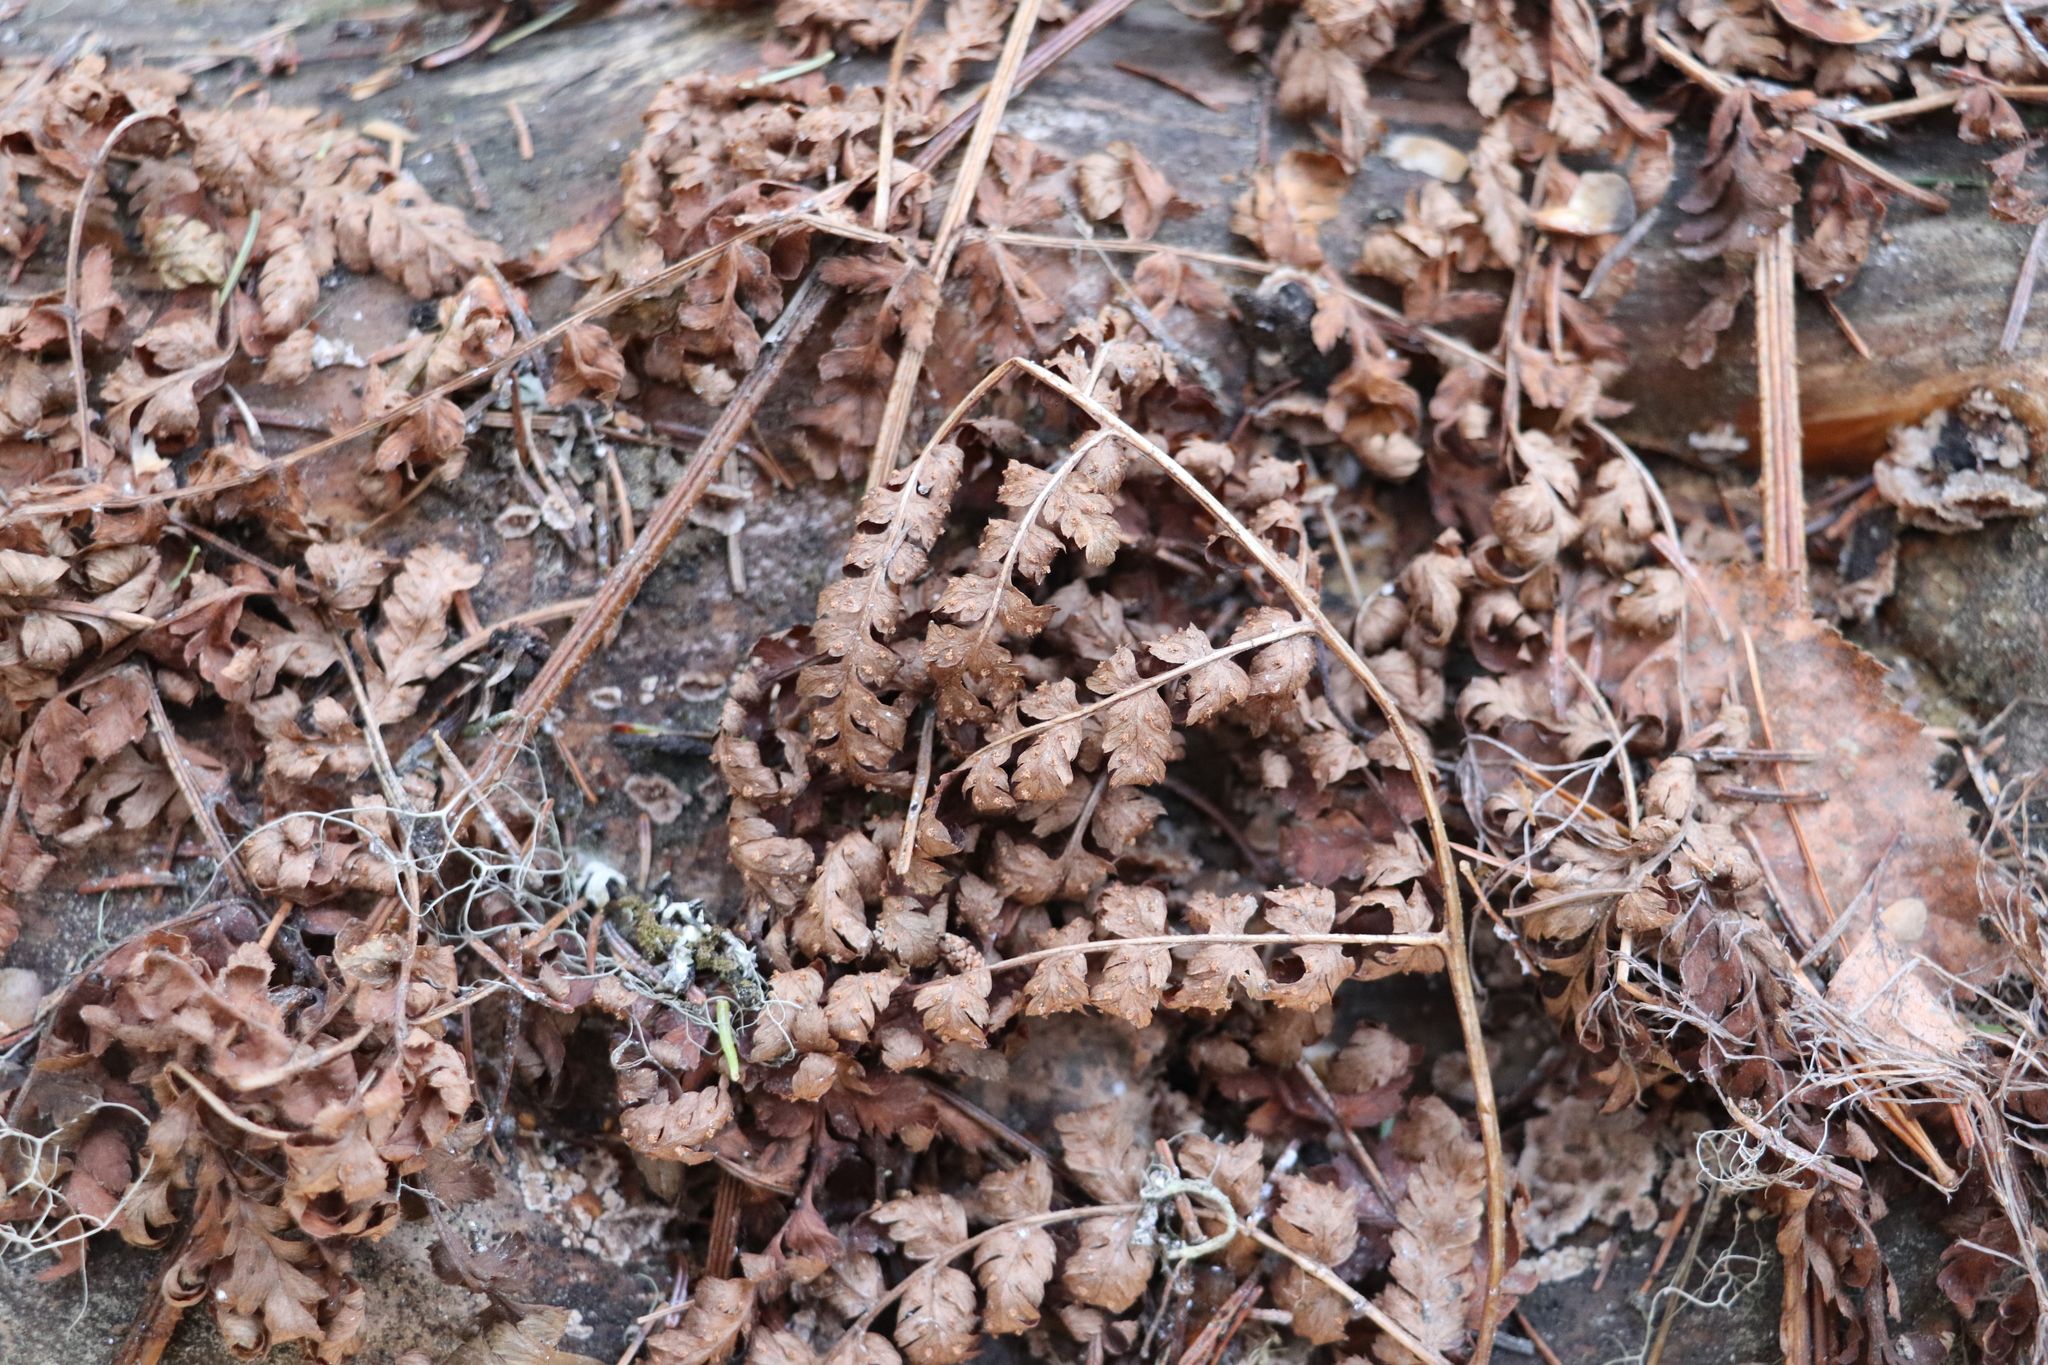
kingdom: Plantae
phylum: Tracheophyta
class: Polypodiopsida
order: Polypodiales
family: Athyriaceae
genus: Athyrium
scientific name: Athyrium filix-femina
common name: Lady fern
